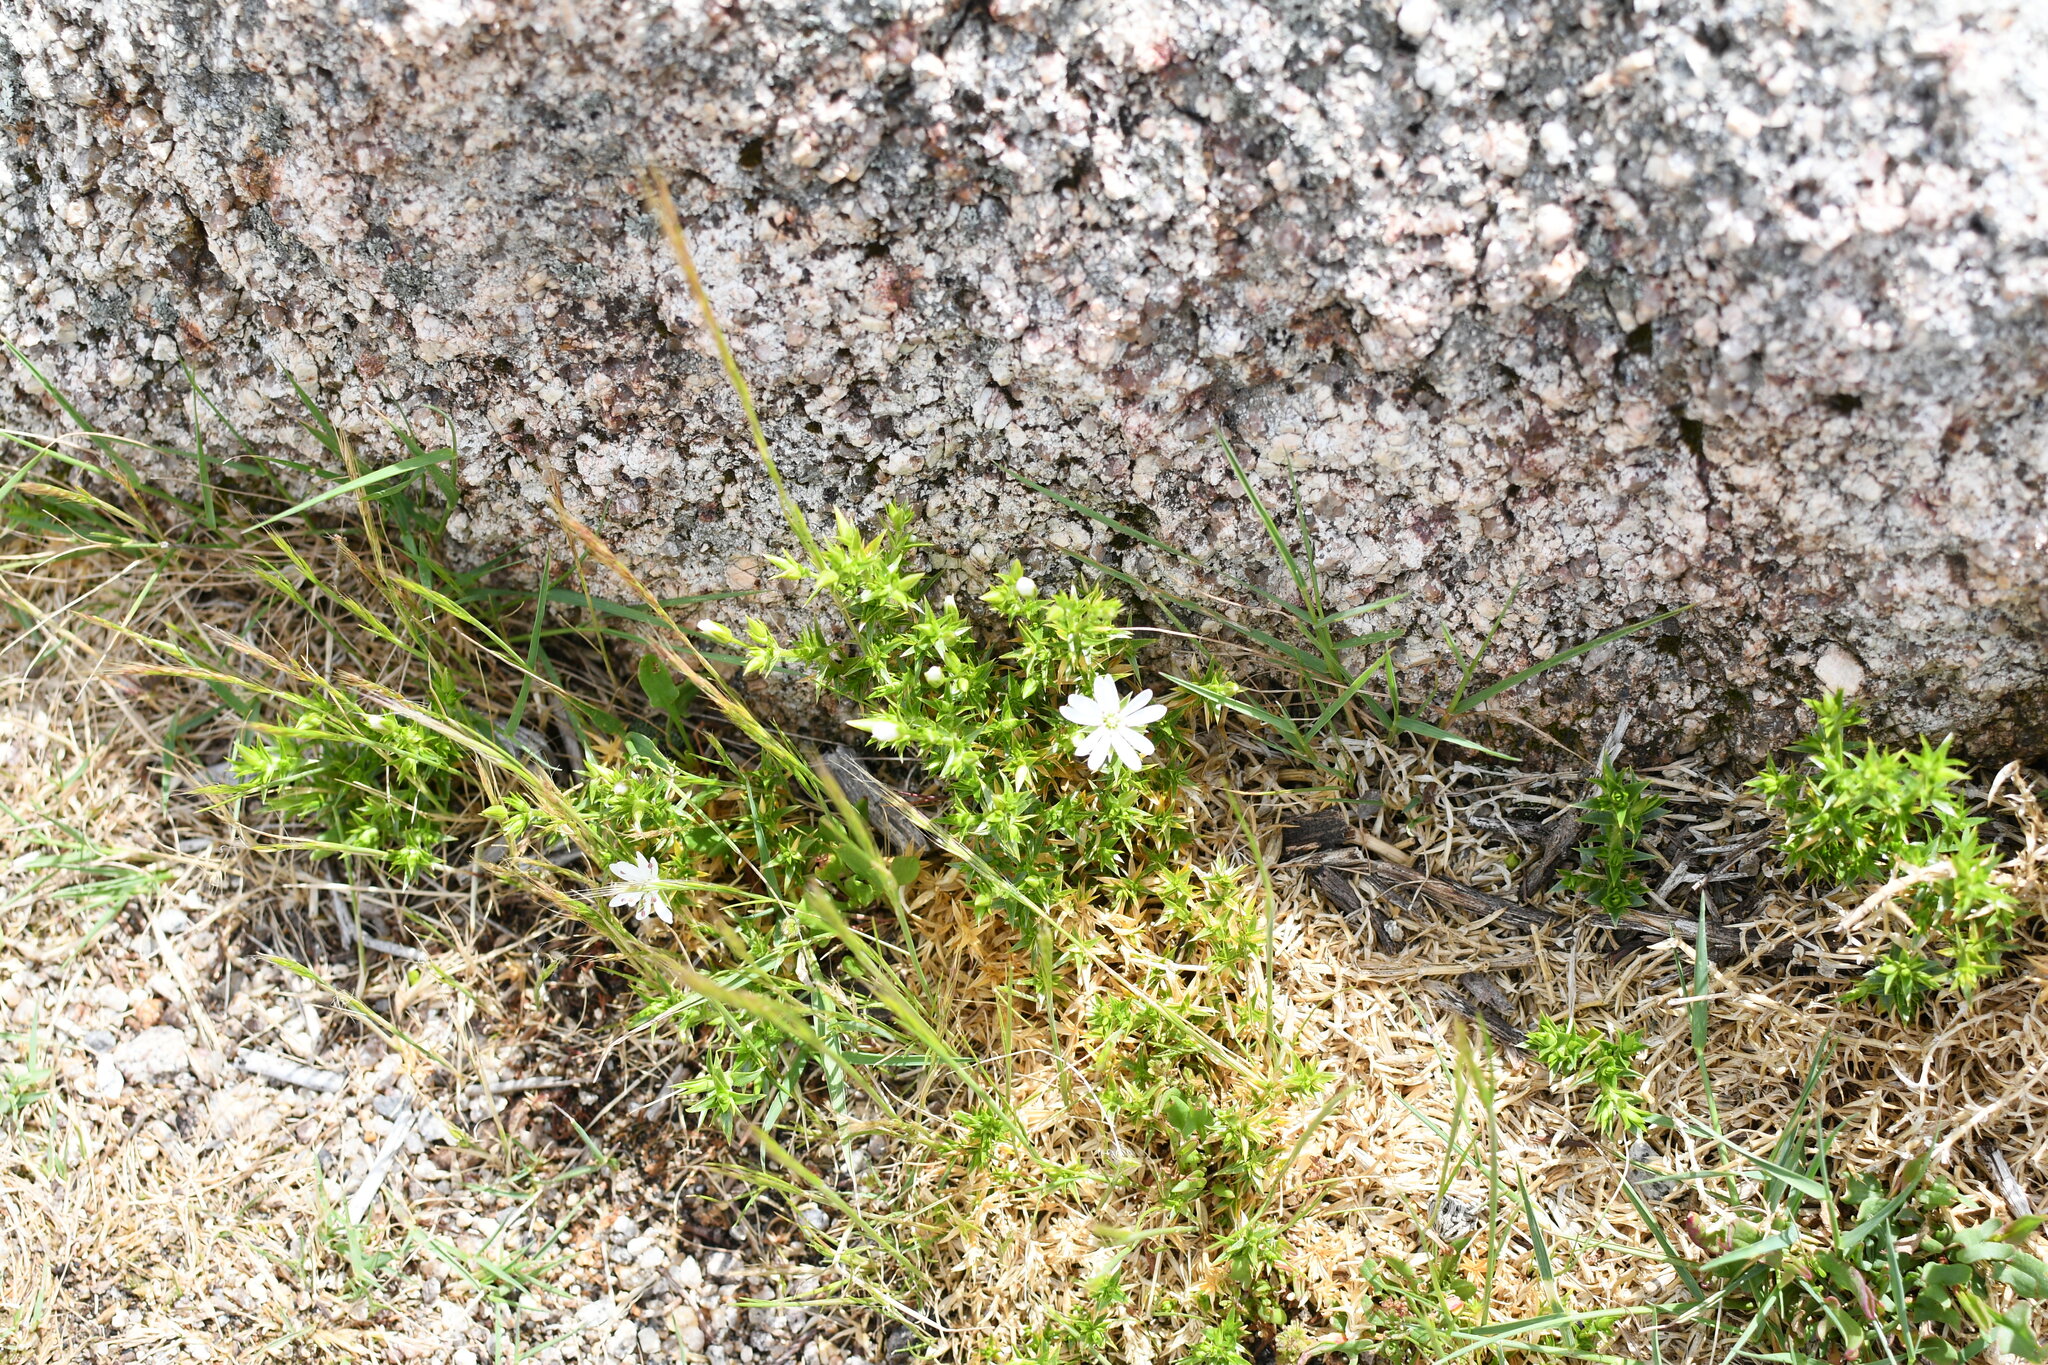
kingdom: Plantae
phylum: Tracheophyta
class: Magnoliopsida
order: Caryophyllales
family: Caryophyllaceae
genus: Stellaria
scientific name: Stellaria pungens
